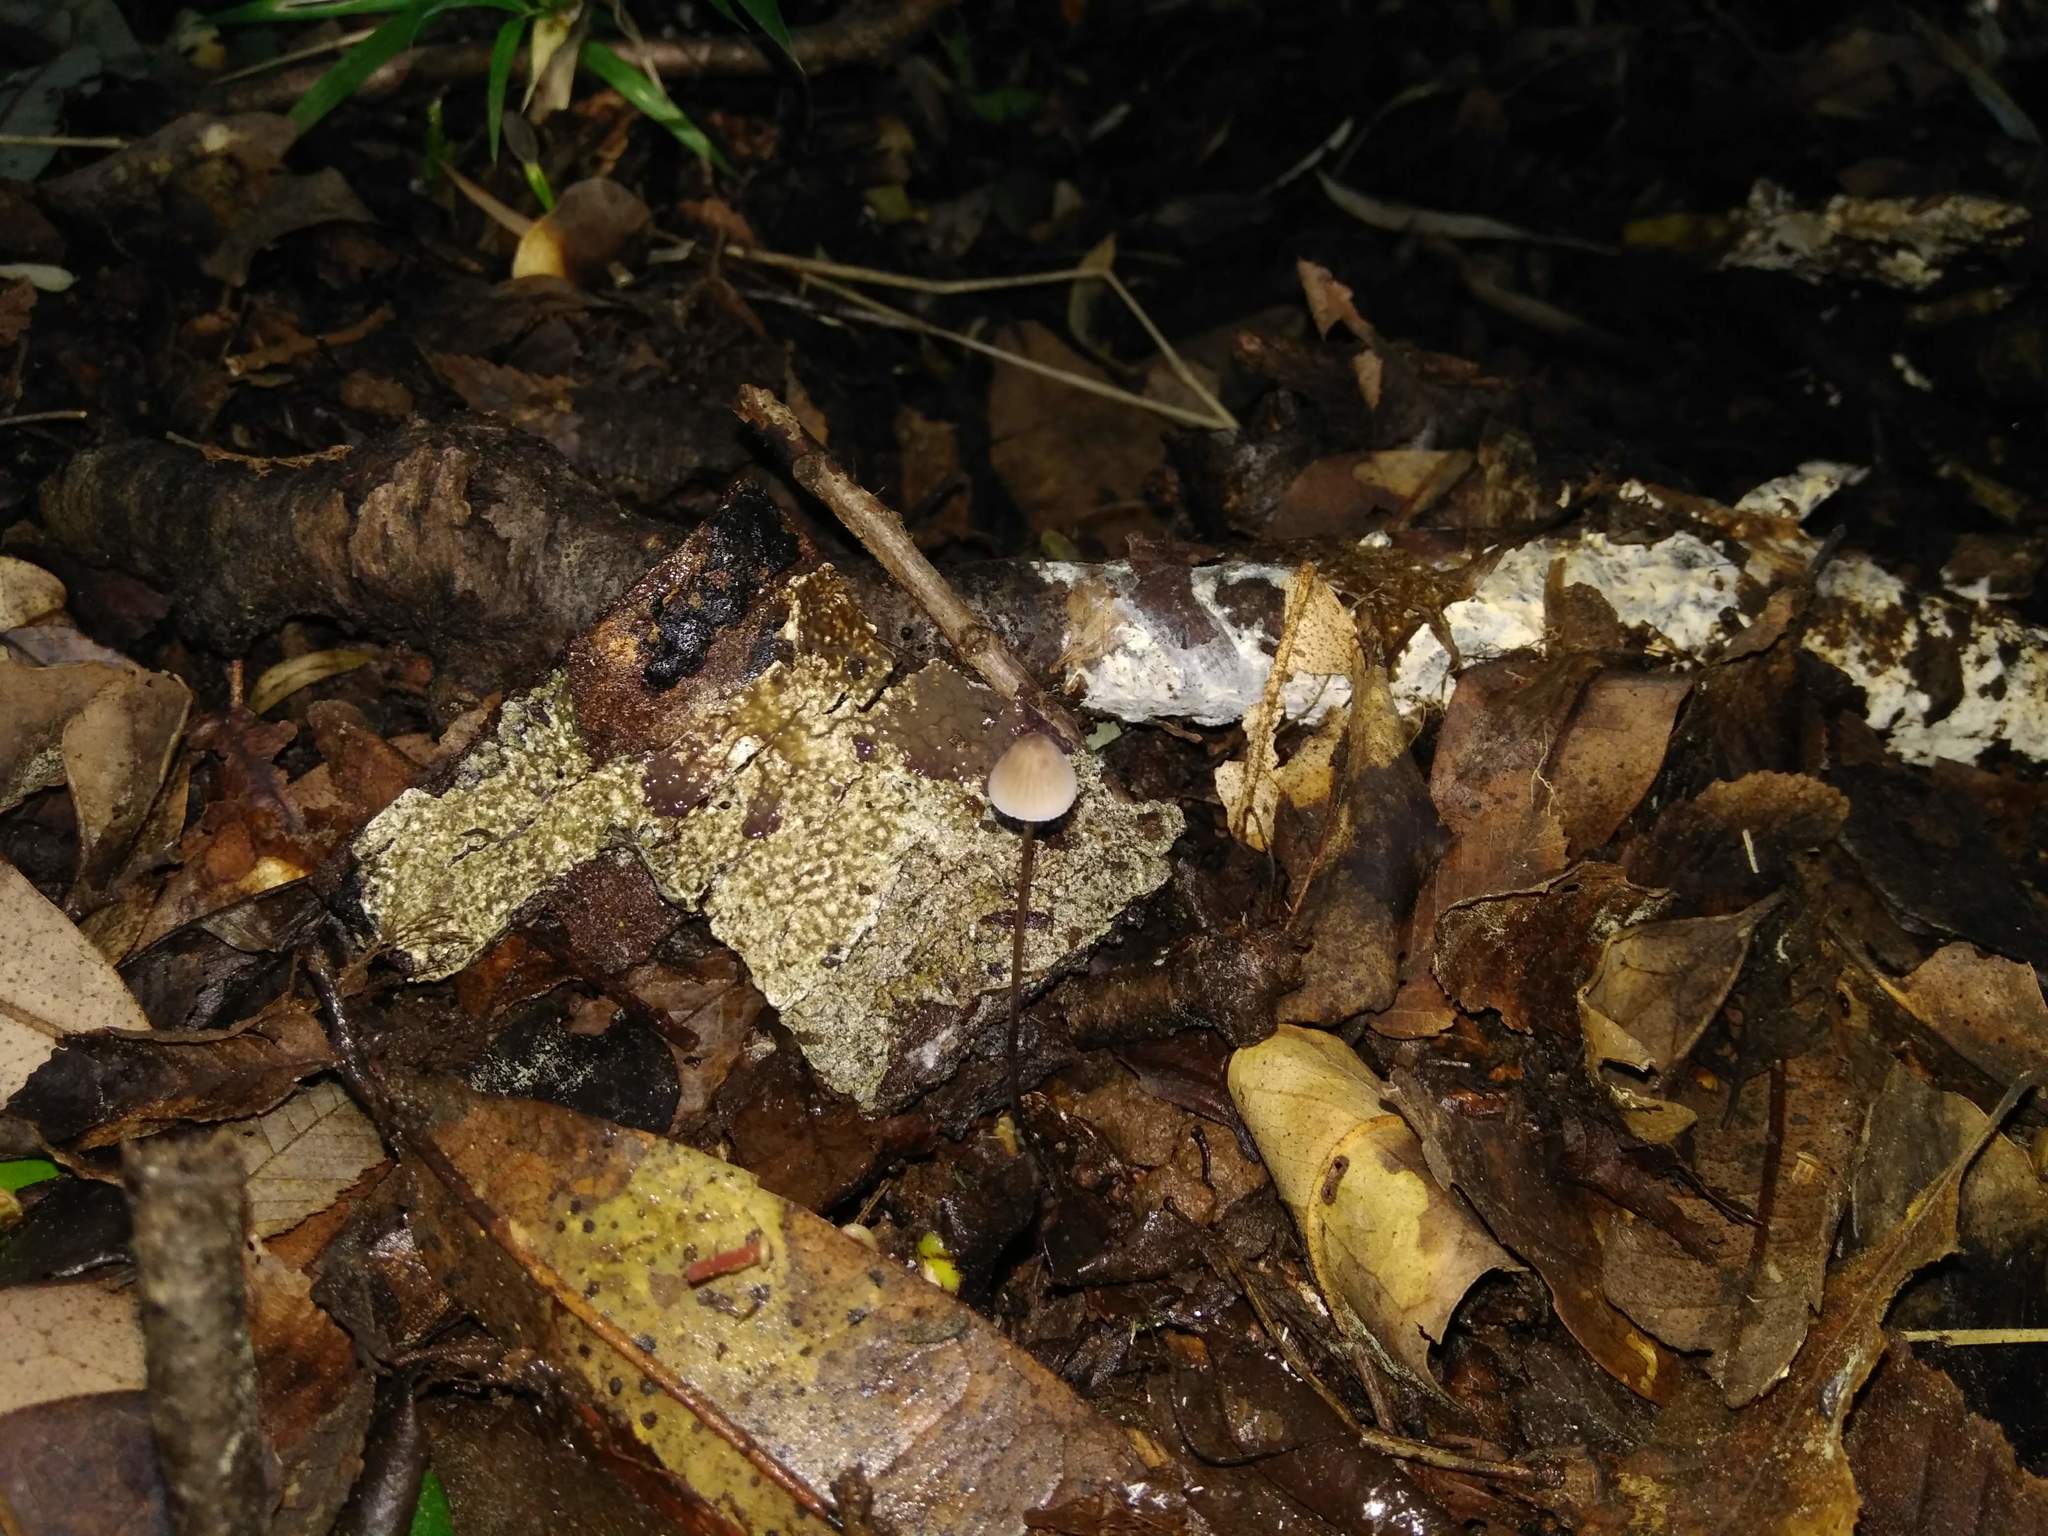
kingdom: Fungi
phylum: Basidiomycota
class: Agaricomycetes
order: Agaricales
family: Mycenaceae
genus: Mycena
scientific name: Mycena filopes
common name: Iodine bonnet
